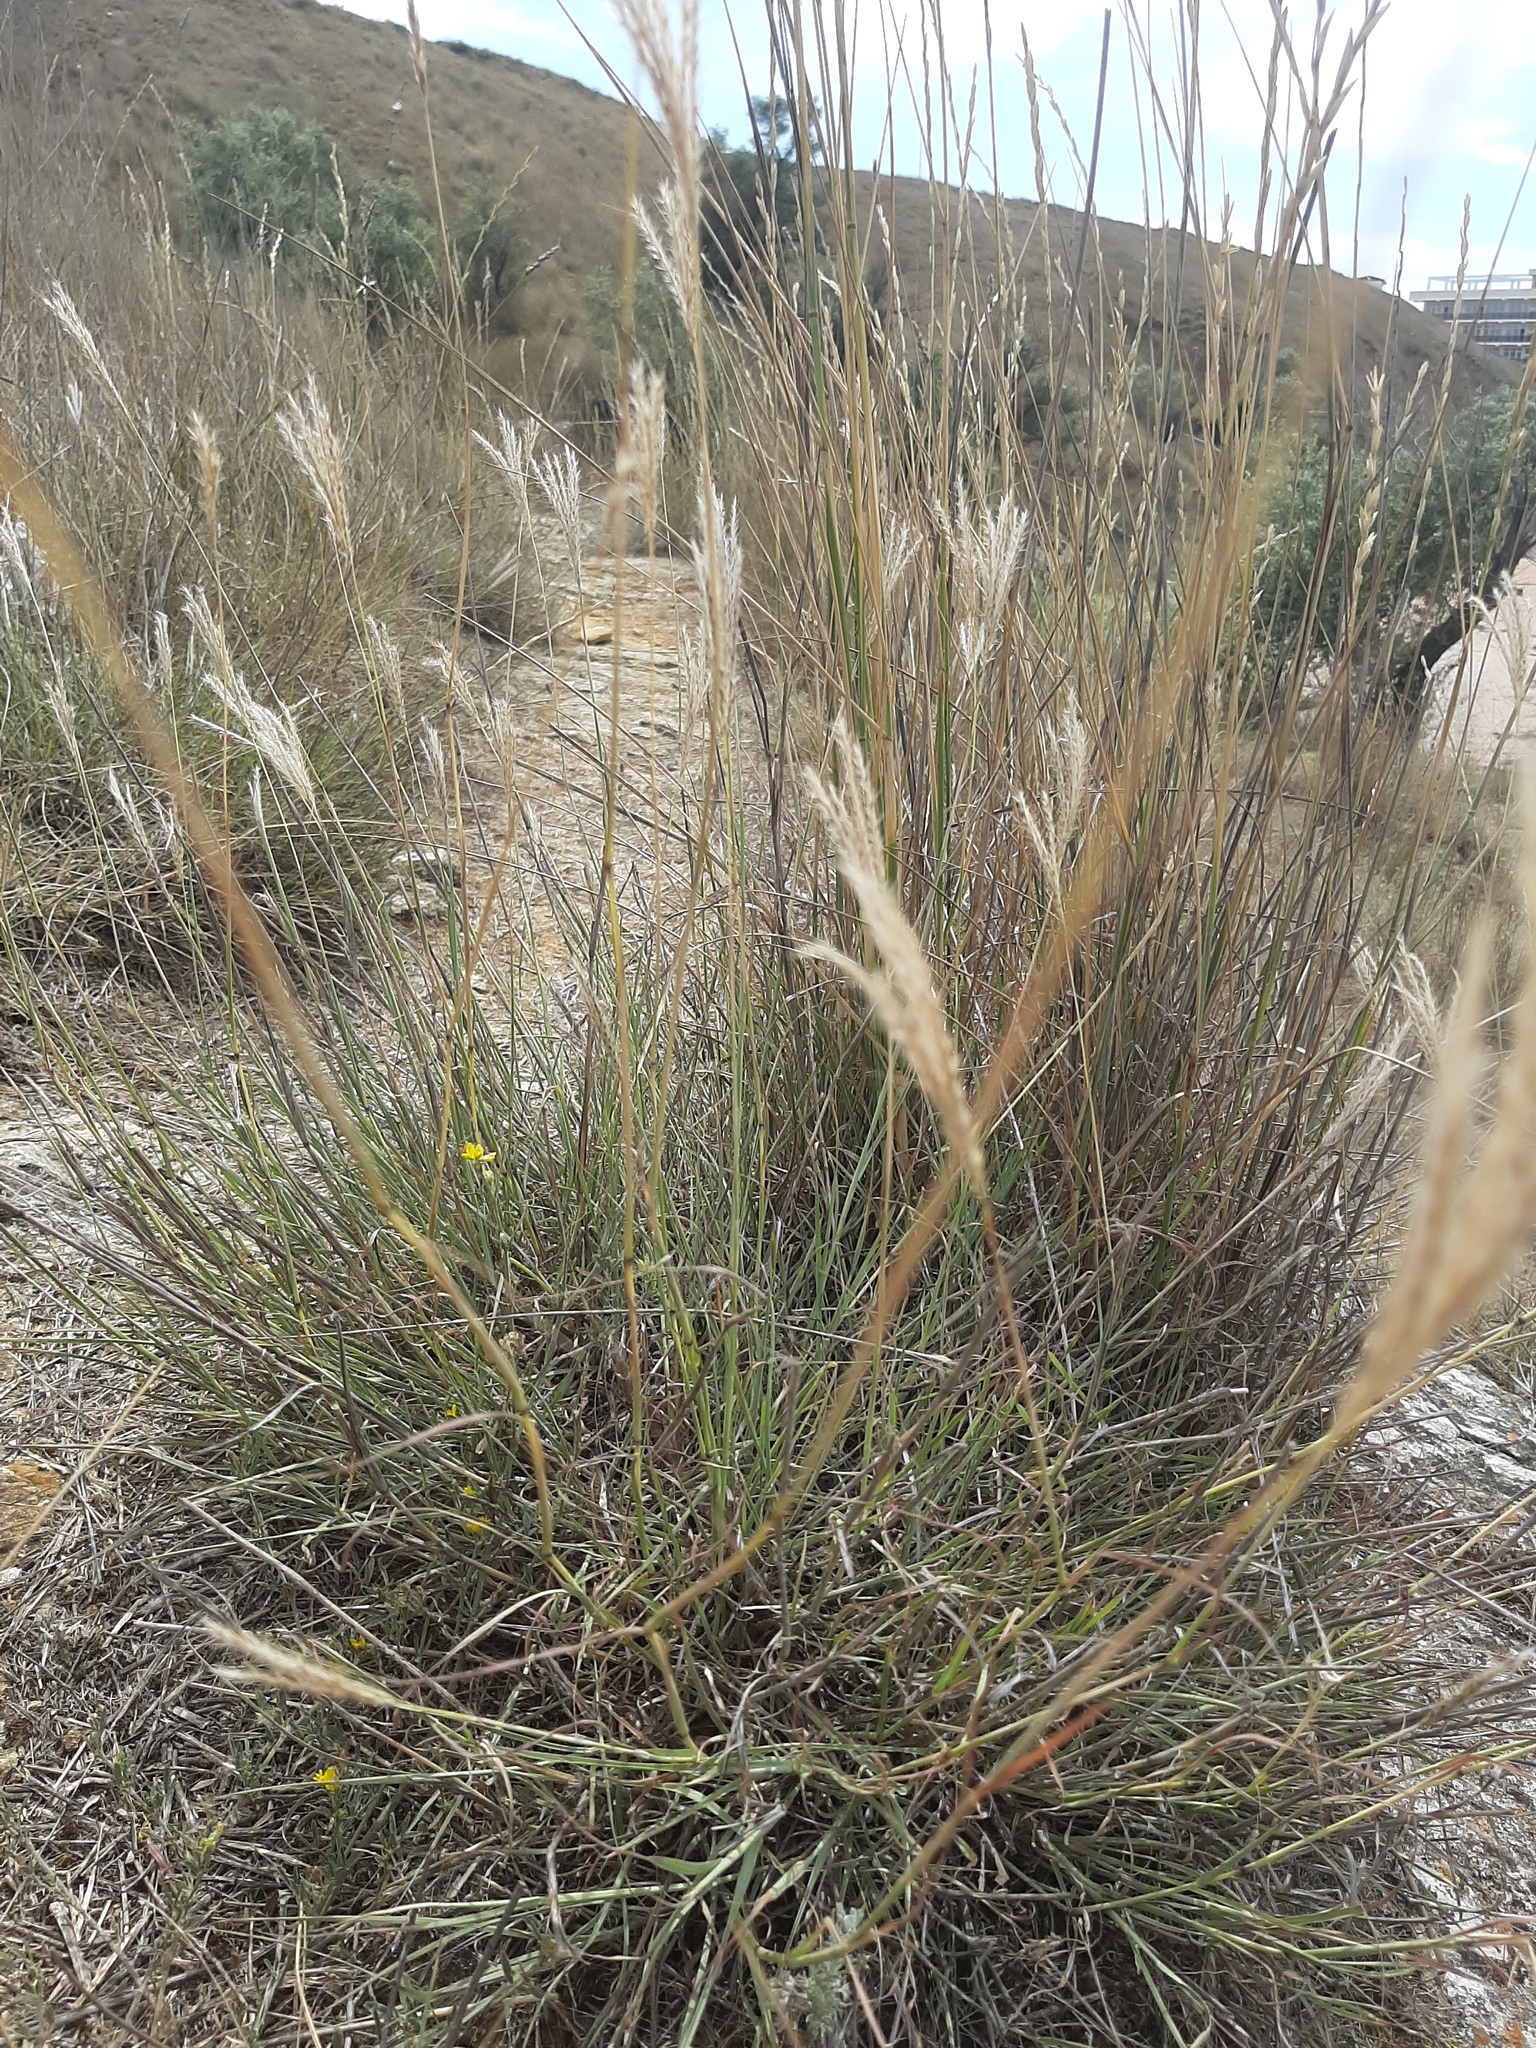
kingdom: Plantae
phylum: Tracheophyta
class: Liliopsida
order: Poales
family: Poaceae
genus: Bothriochloa
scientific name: Bothriochloa ischaemum
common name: Yellow bluestem
